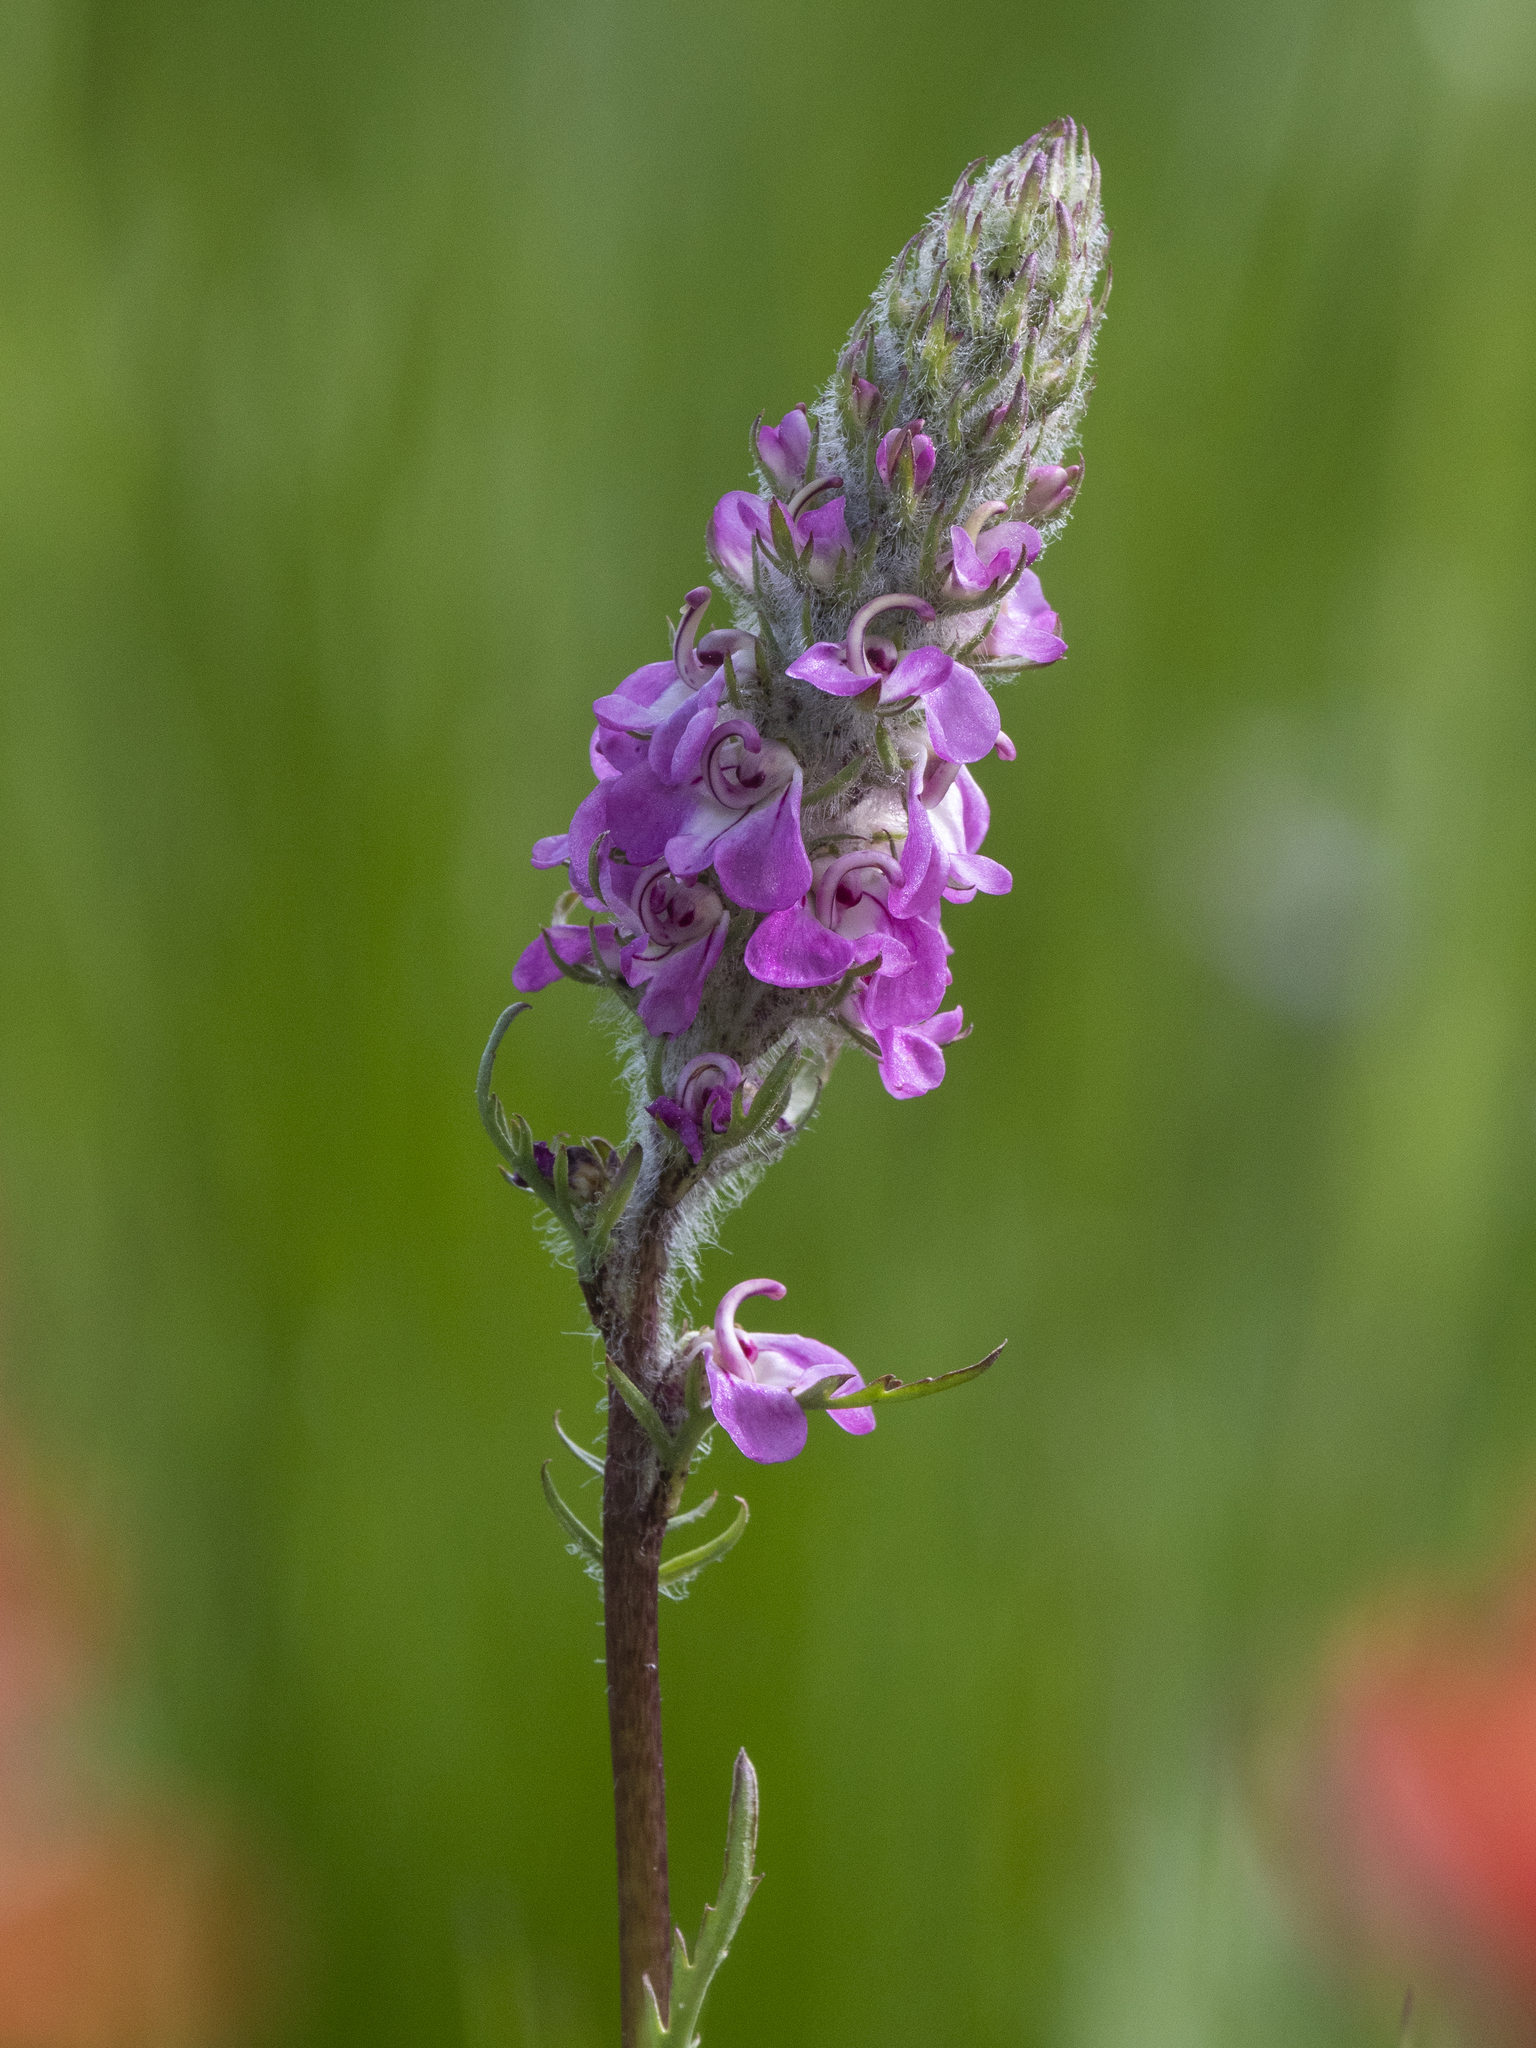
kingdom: Plantae
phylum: Tracheophyta
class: Magnoliopsida
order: Lamiales
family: Orobanchaceae
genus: Pedicularis
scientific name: Pedicularis attollens
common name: Slender pedicularis
